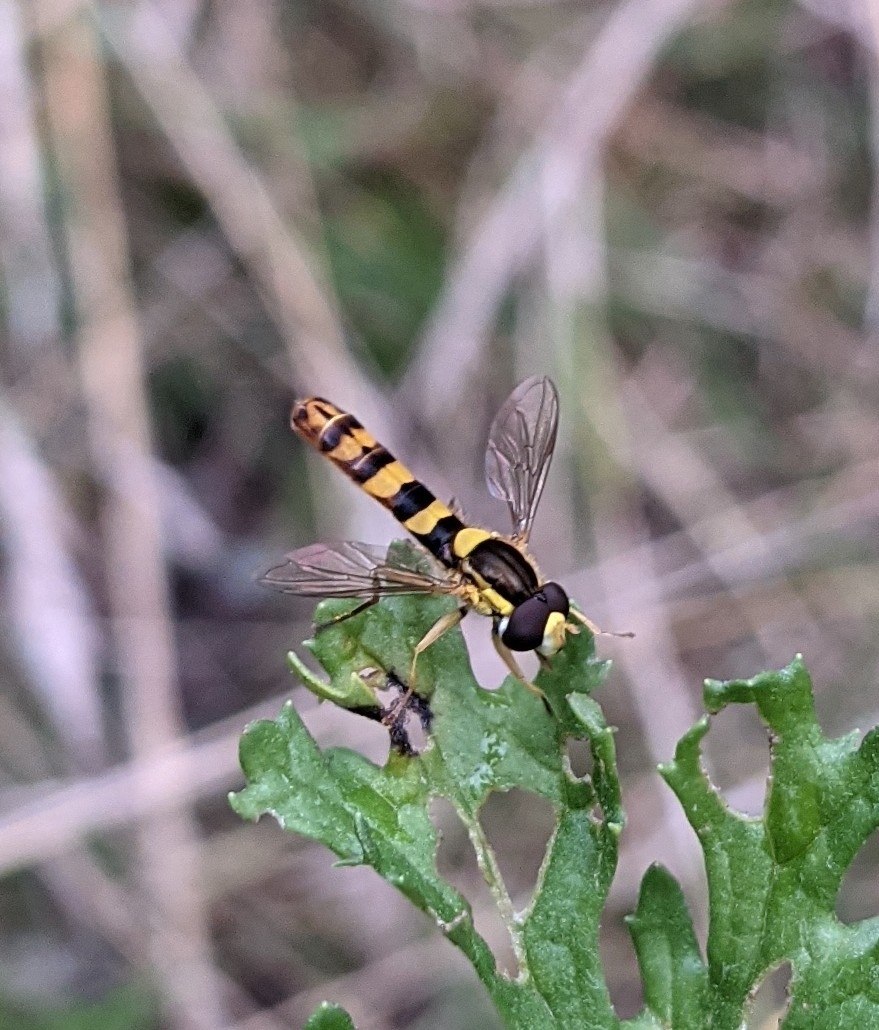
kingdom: Animalia
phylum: Arthropoda
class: Insecta
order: Diptera
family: Syrphidae
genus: Sphaerophoria
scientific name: Sphaerophoria scripta
